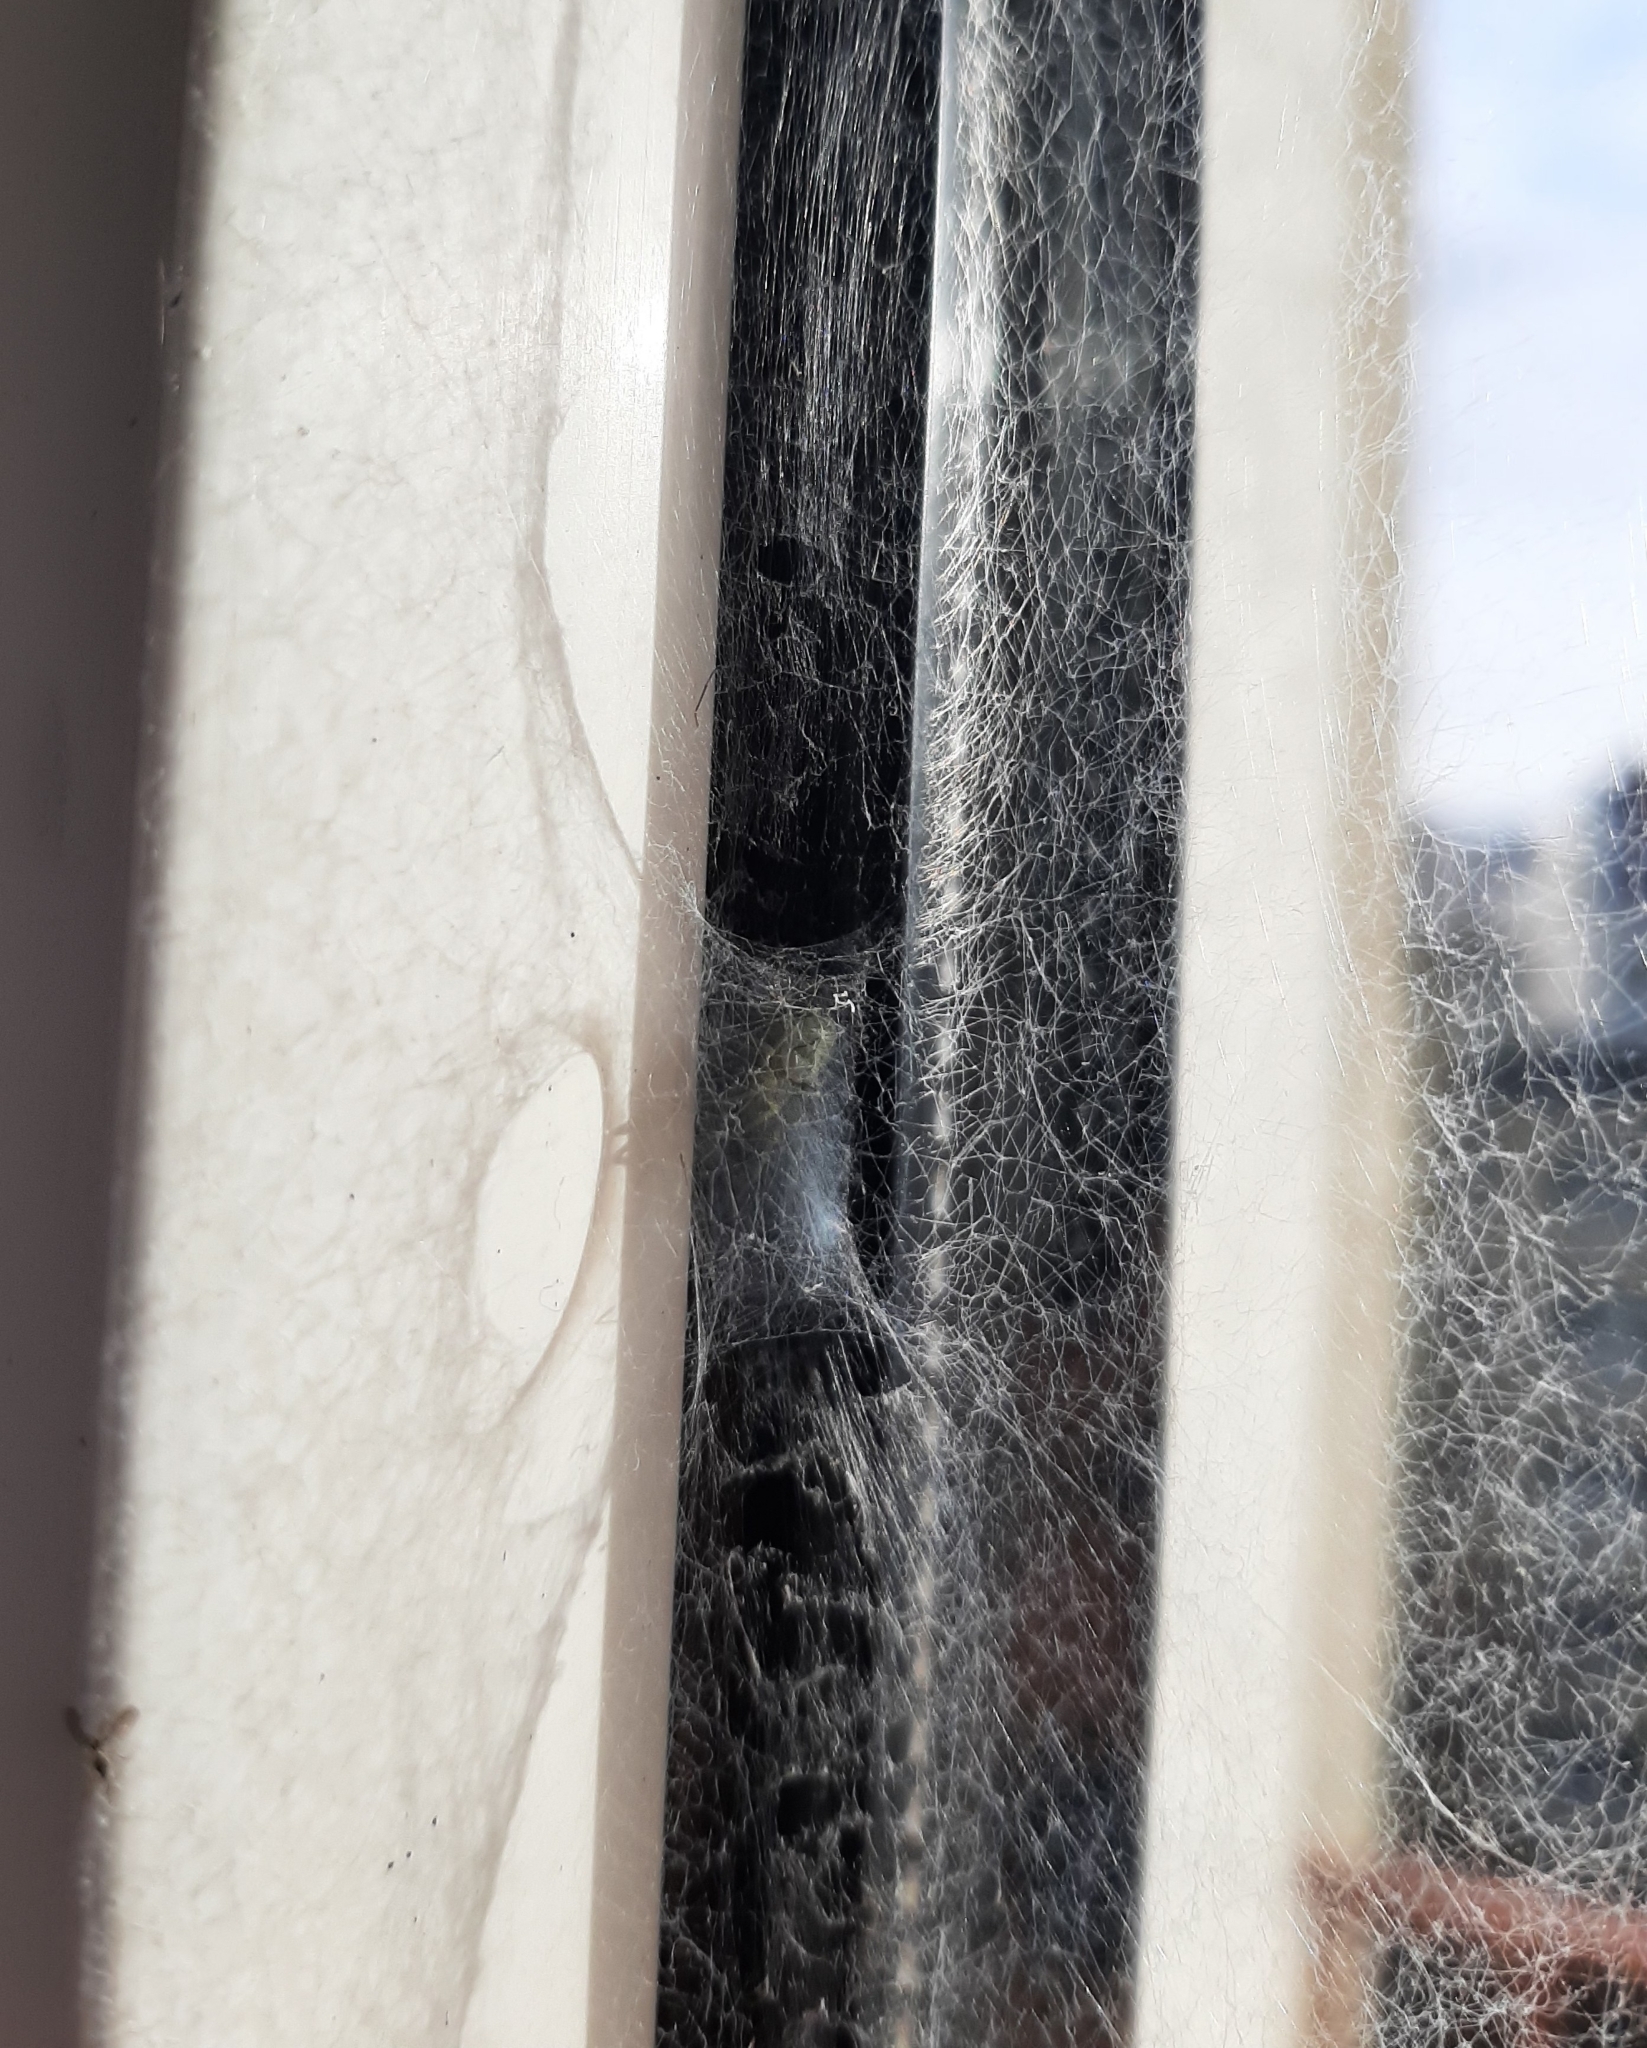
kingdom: Animalia
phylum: Arthropoda
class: Arachnida
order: Araneae
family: Dictynidae
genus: Nigma
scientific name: Nigma walckenaeri
